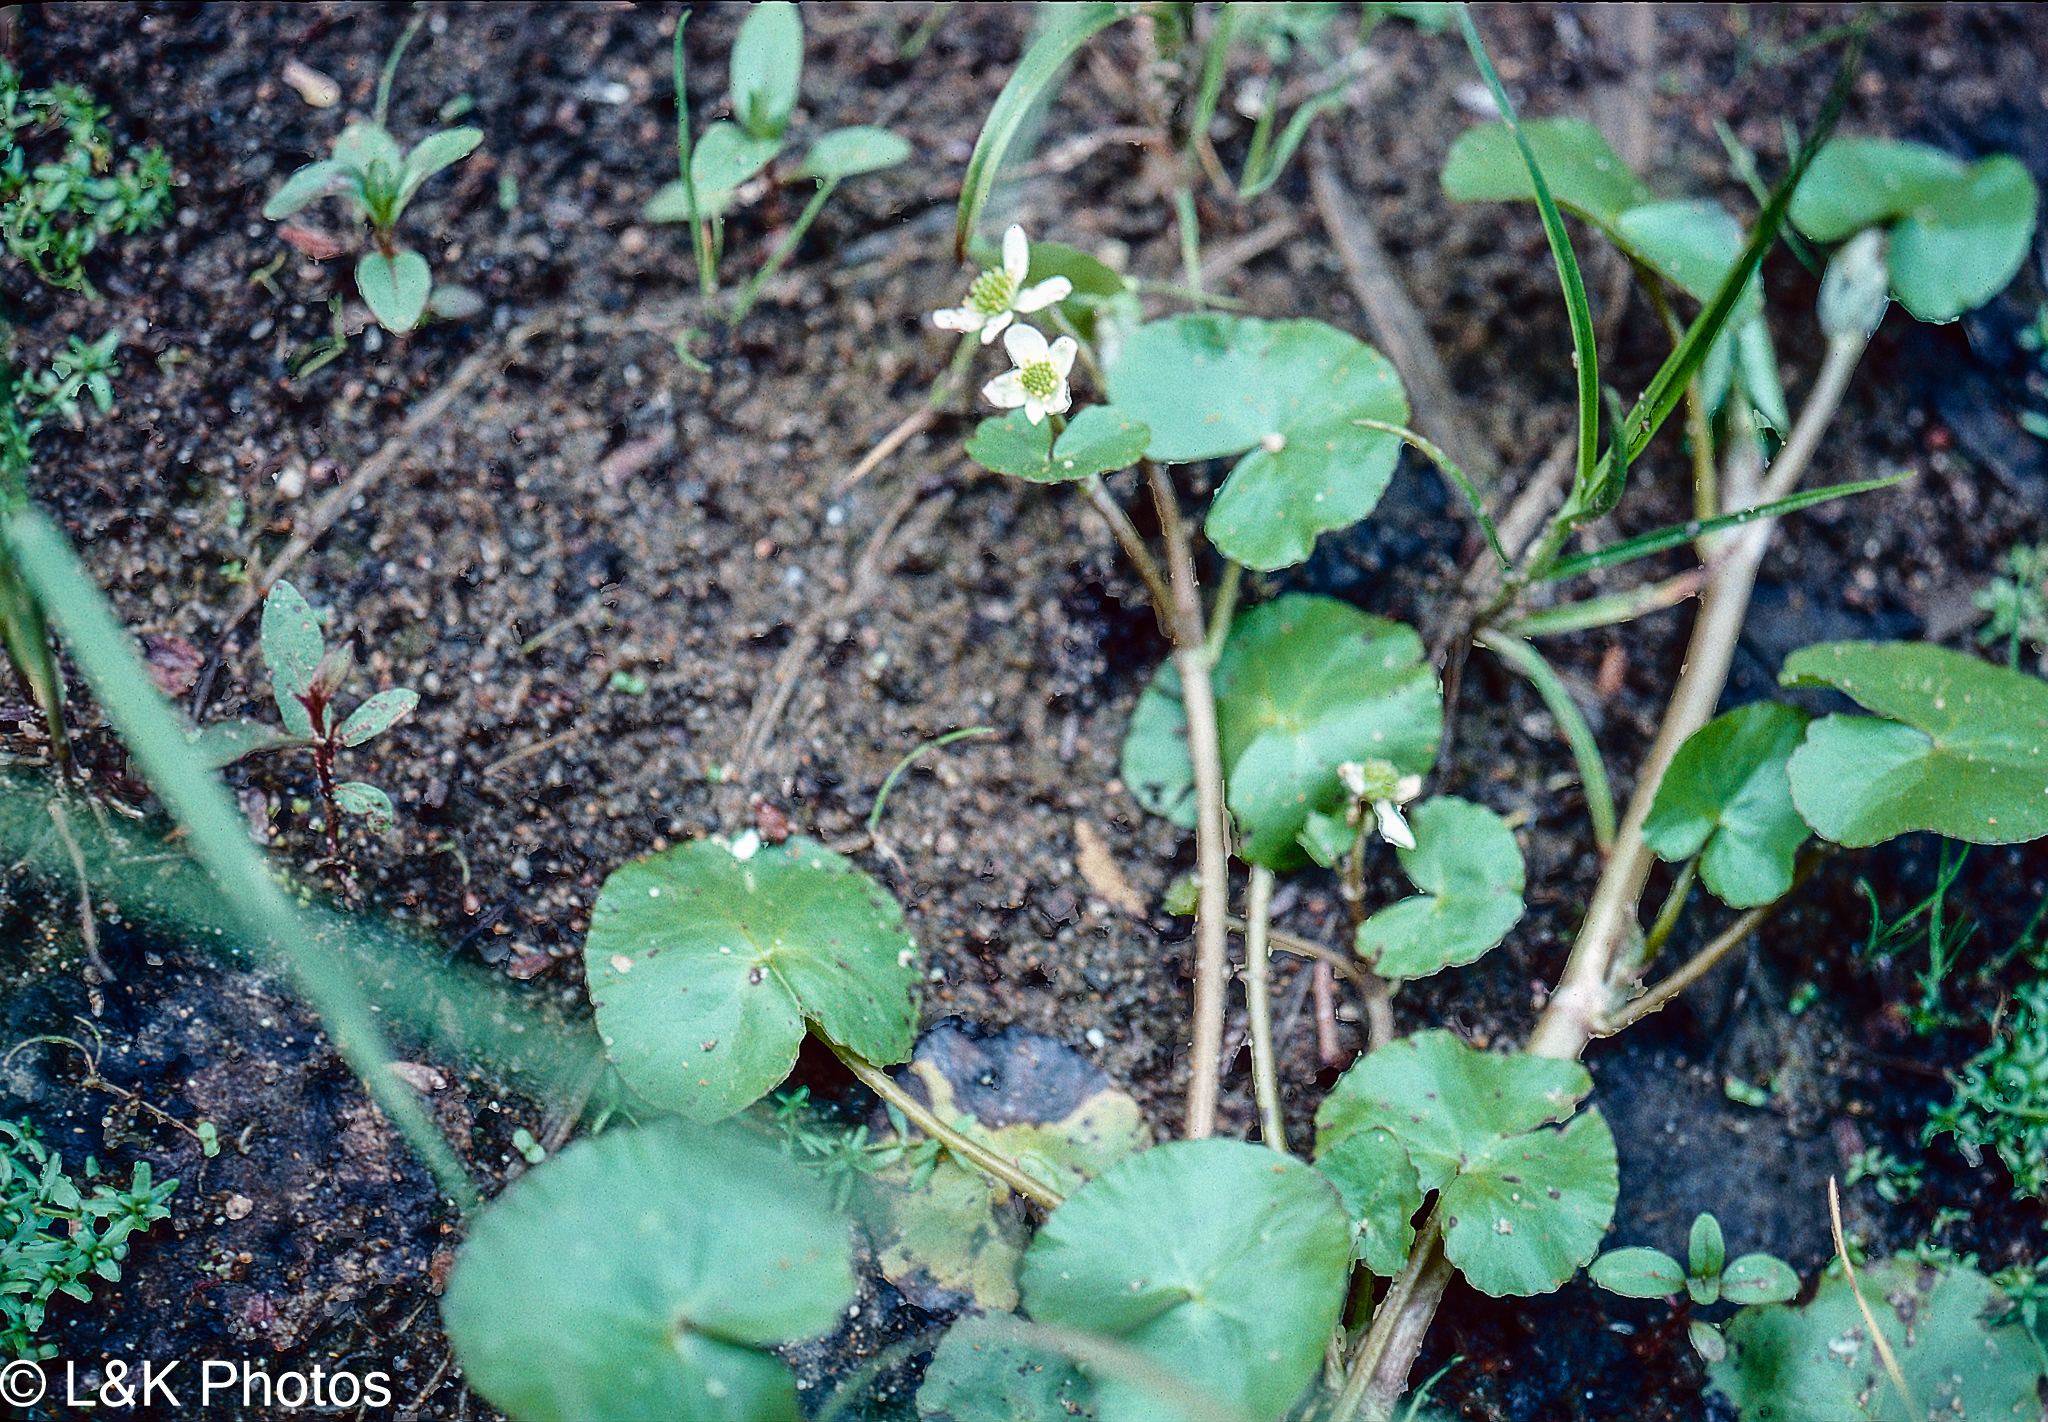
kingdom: Plantae
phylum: Tracheophyta
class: Magnoliopsida
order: Ranunculales
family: Ranunculaceae
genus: Caltha
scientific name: Caltha natans
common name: Floating marsh marigold
